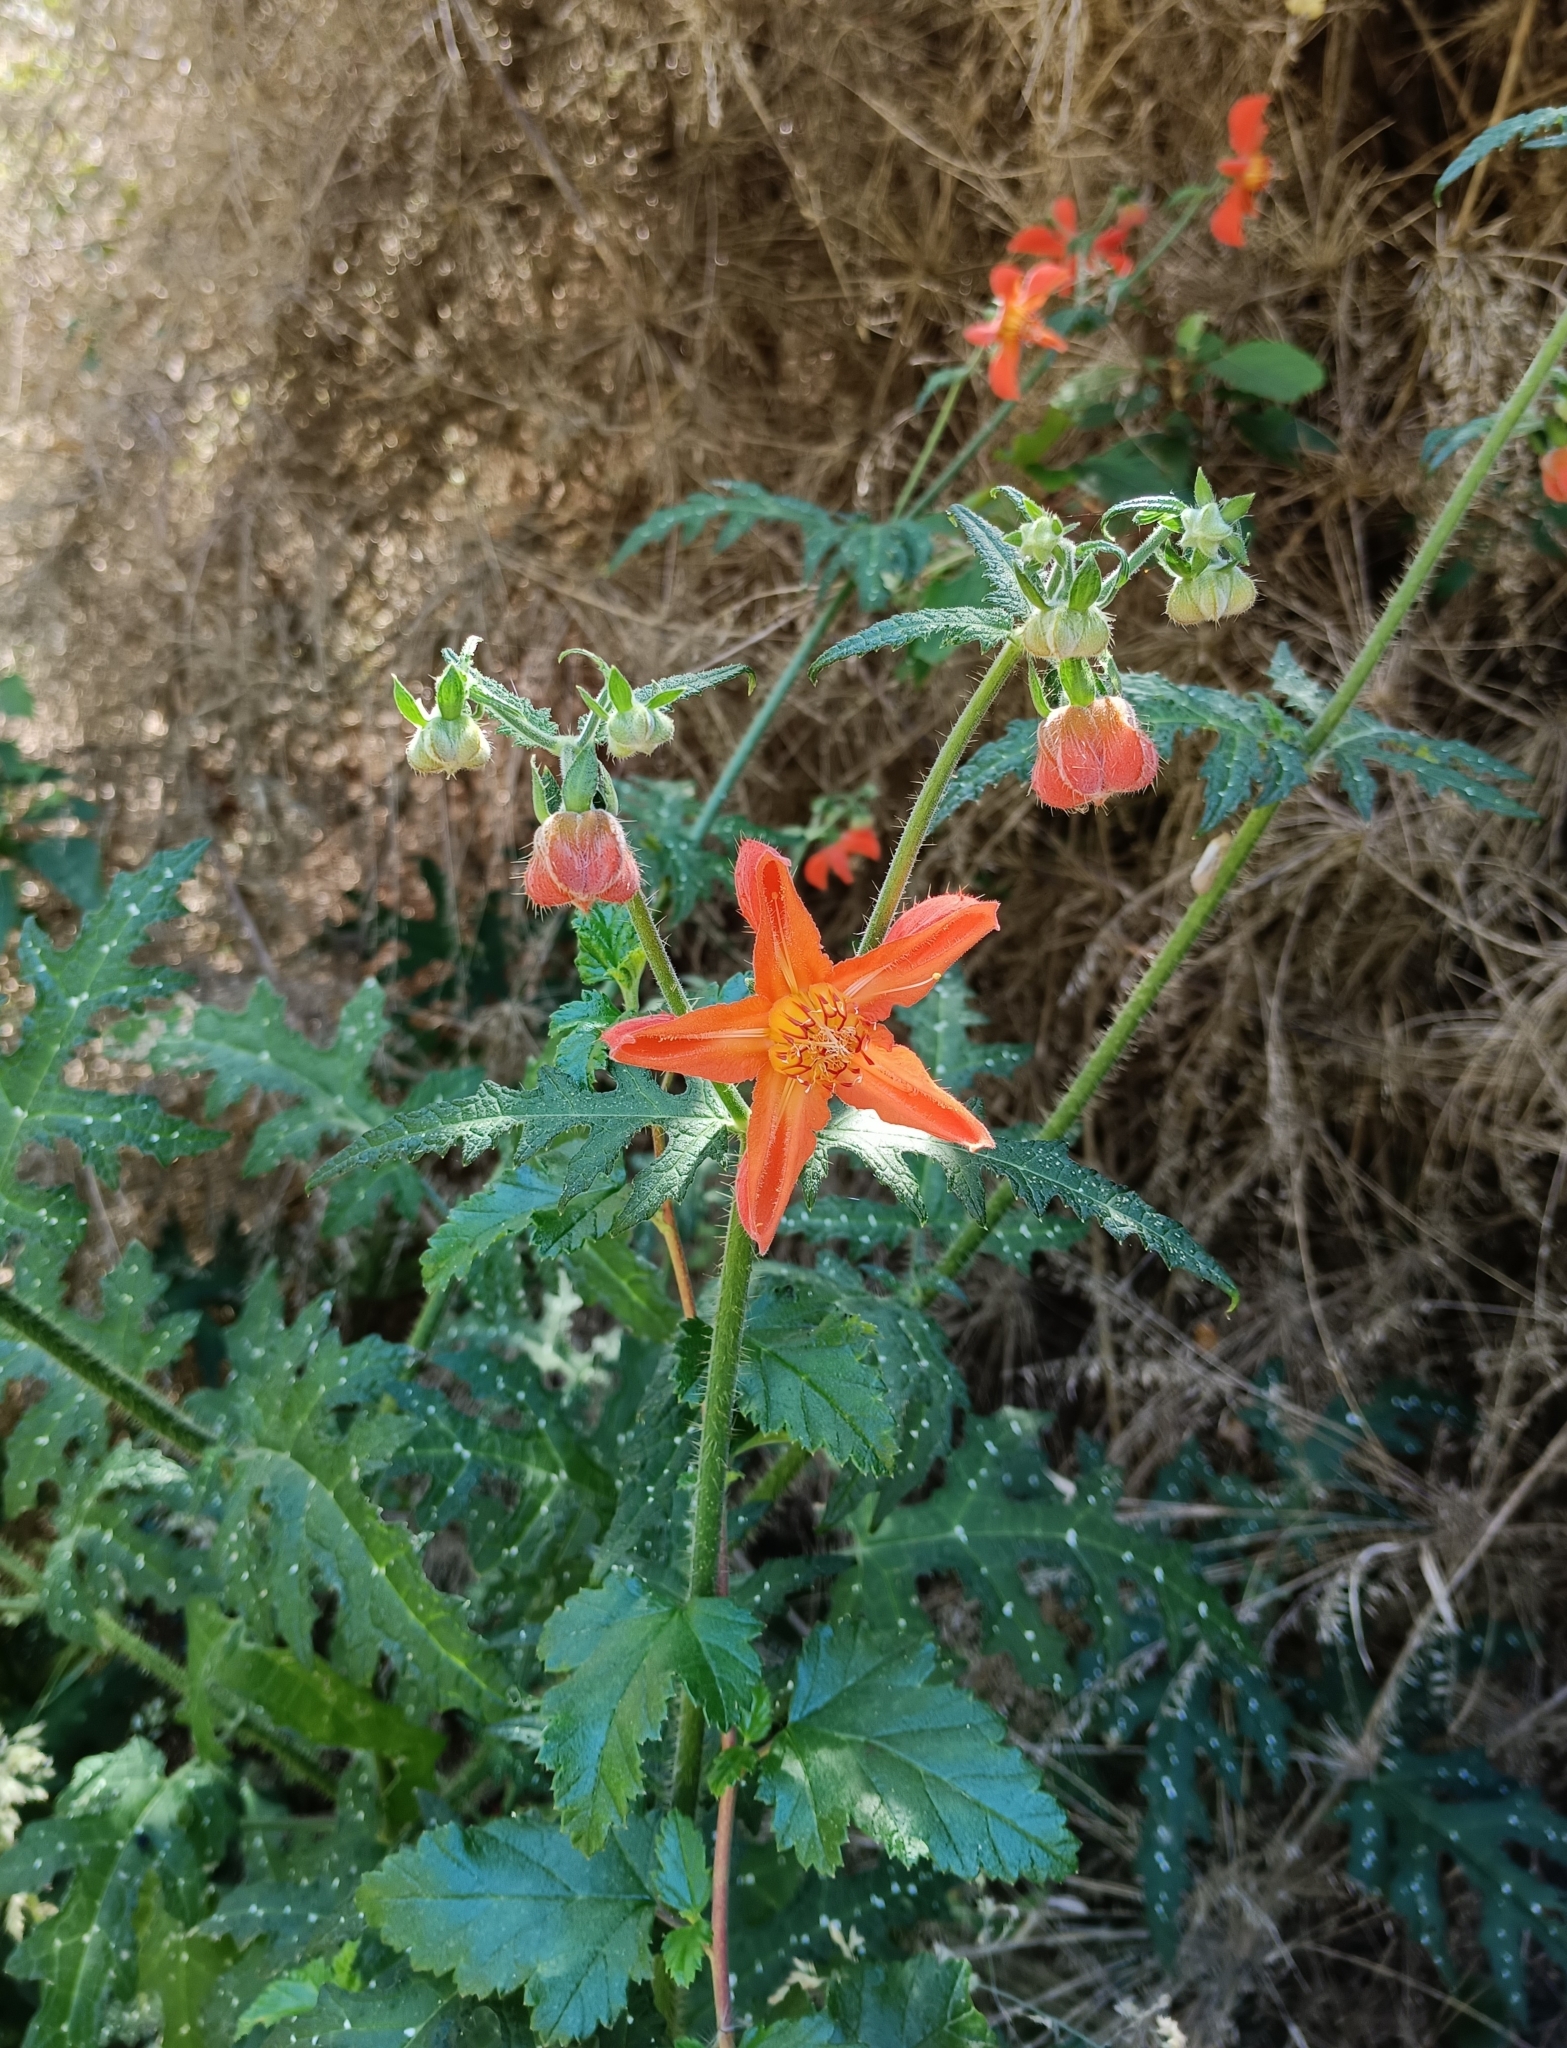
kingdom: Plantae
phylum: Tracheophyta
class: Magnoliopsida
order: Cornales
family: Loasaceae
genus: Loasa
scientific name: Loasa acanthifolia
